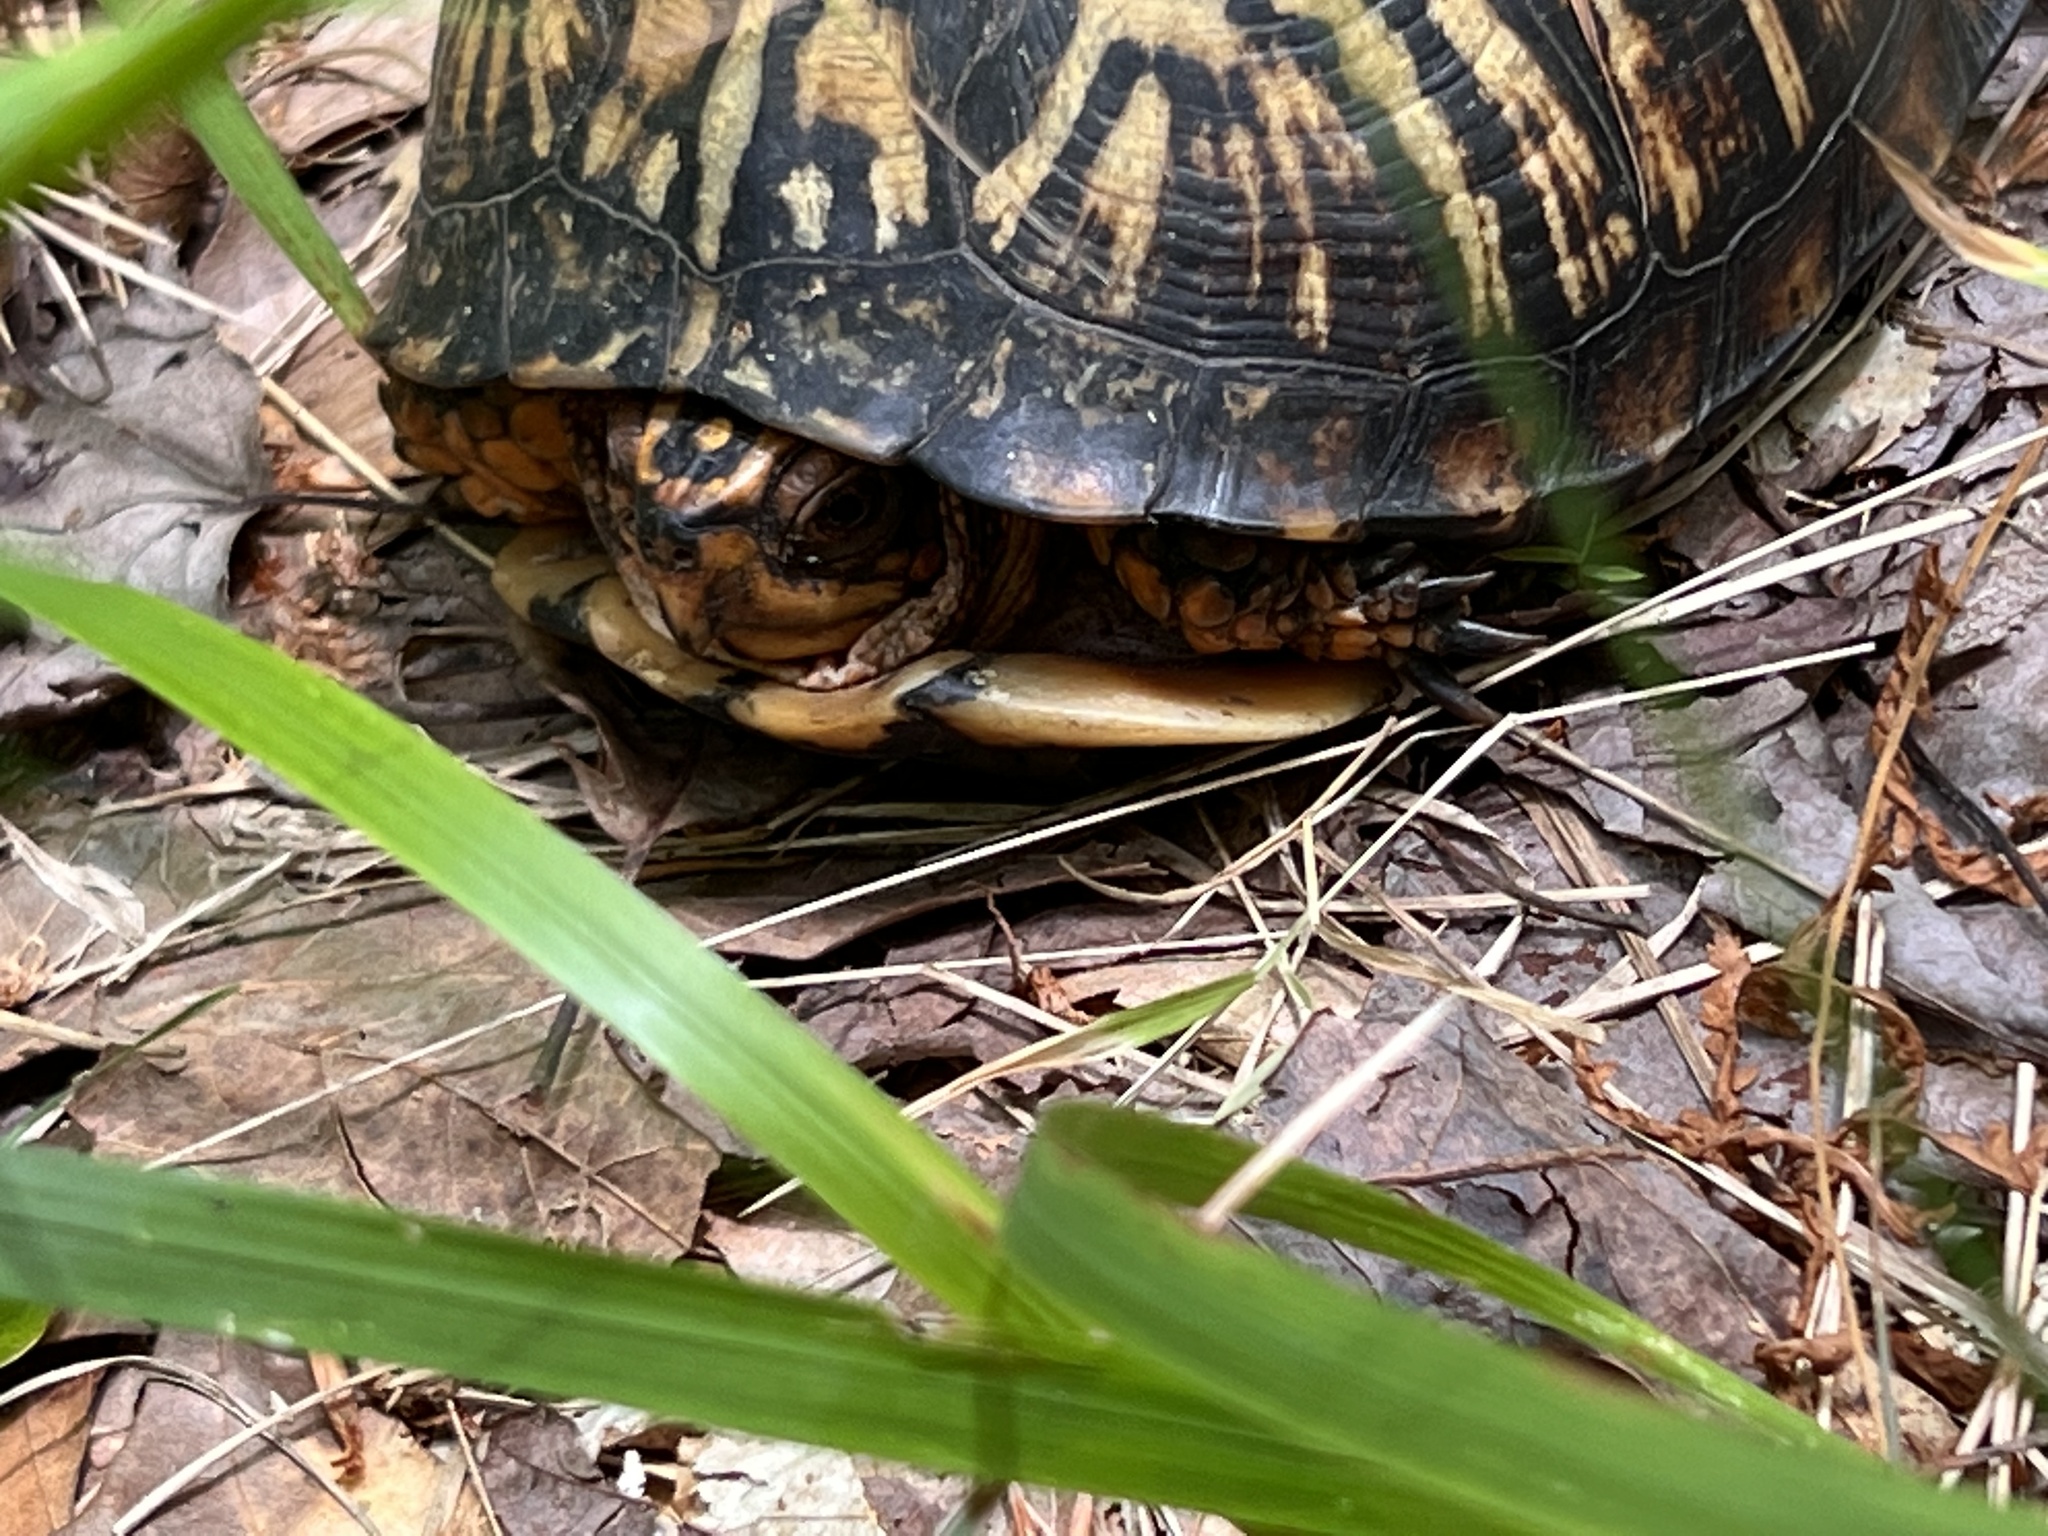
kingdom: Animalia
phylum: Chordata
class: Testudines
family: Emydidae
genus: Terrapene
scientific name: Terrapene carolina
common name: Common box turtle
